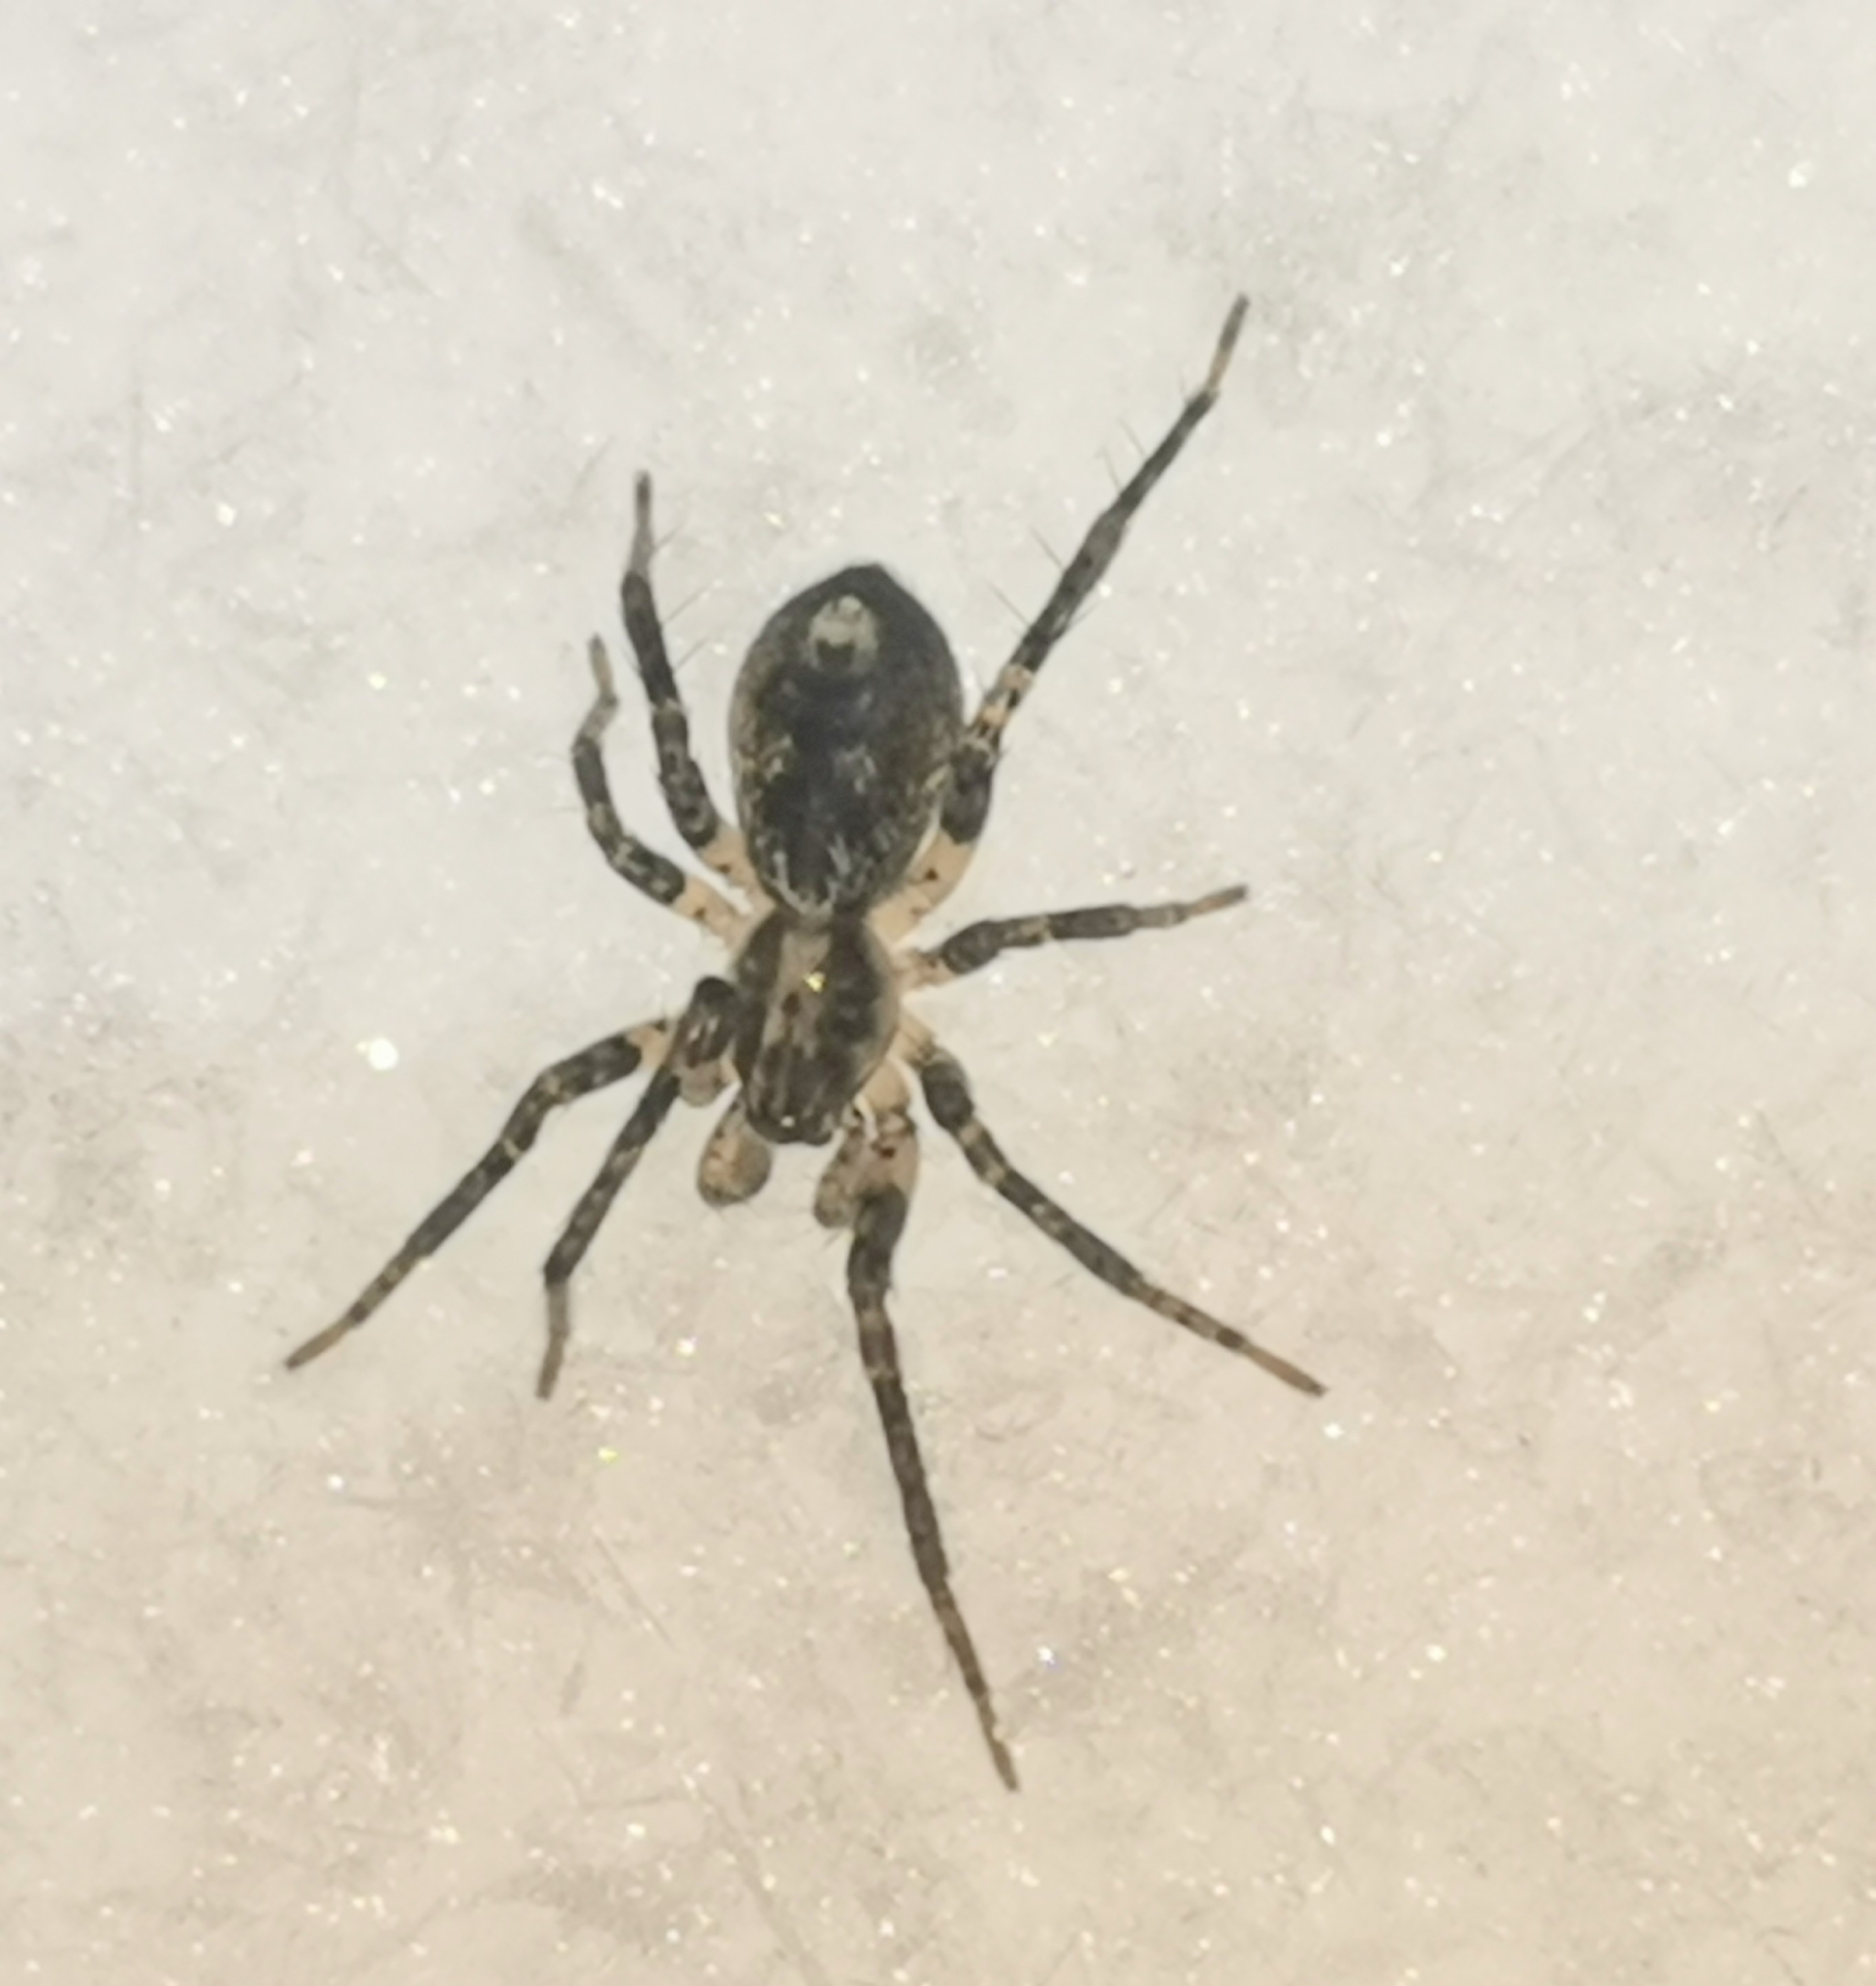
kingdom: Animalia
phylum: Arthropoda
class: Arachnida
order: Araneae
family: Anyphaenidae
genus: Anyphaena
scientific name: Anyphaena accentuata
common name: Buzzing spider
